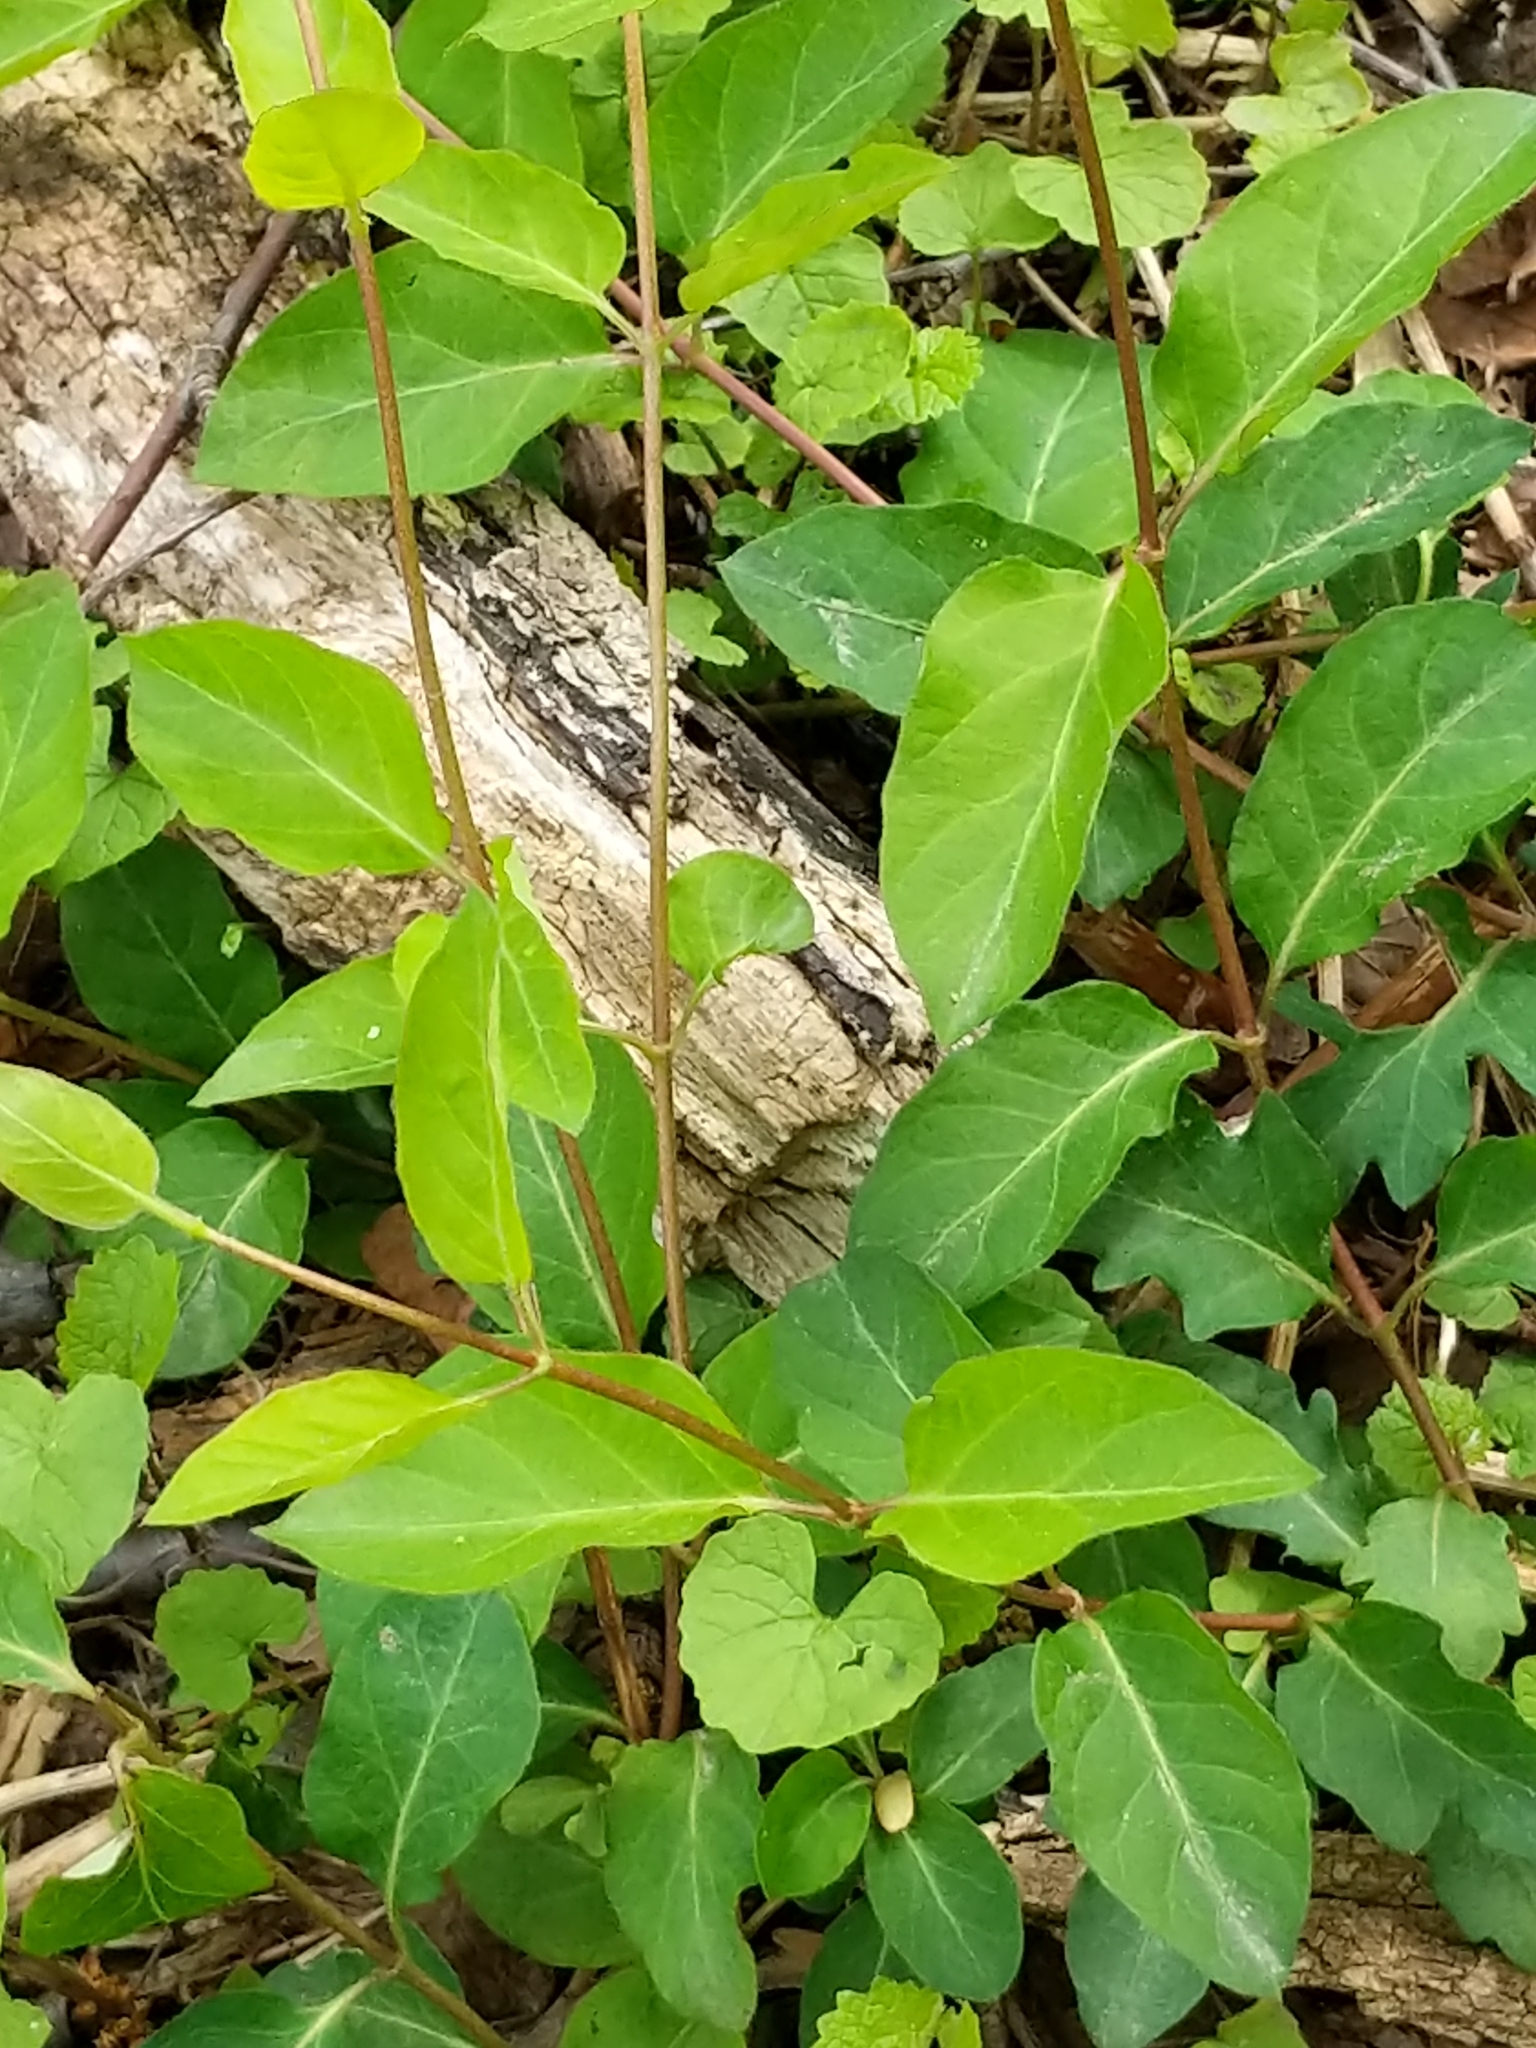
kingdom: Plantae
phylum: Tracheophyta
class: Magnoliopsida
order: Dipsacales
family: Caprifoliaceae
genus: Lonicera
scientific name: Lonicera japonica
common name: Japanese honeysuckle
